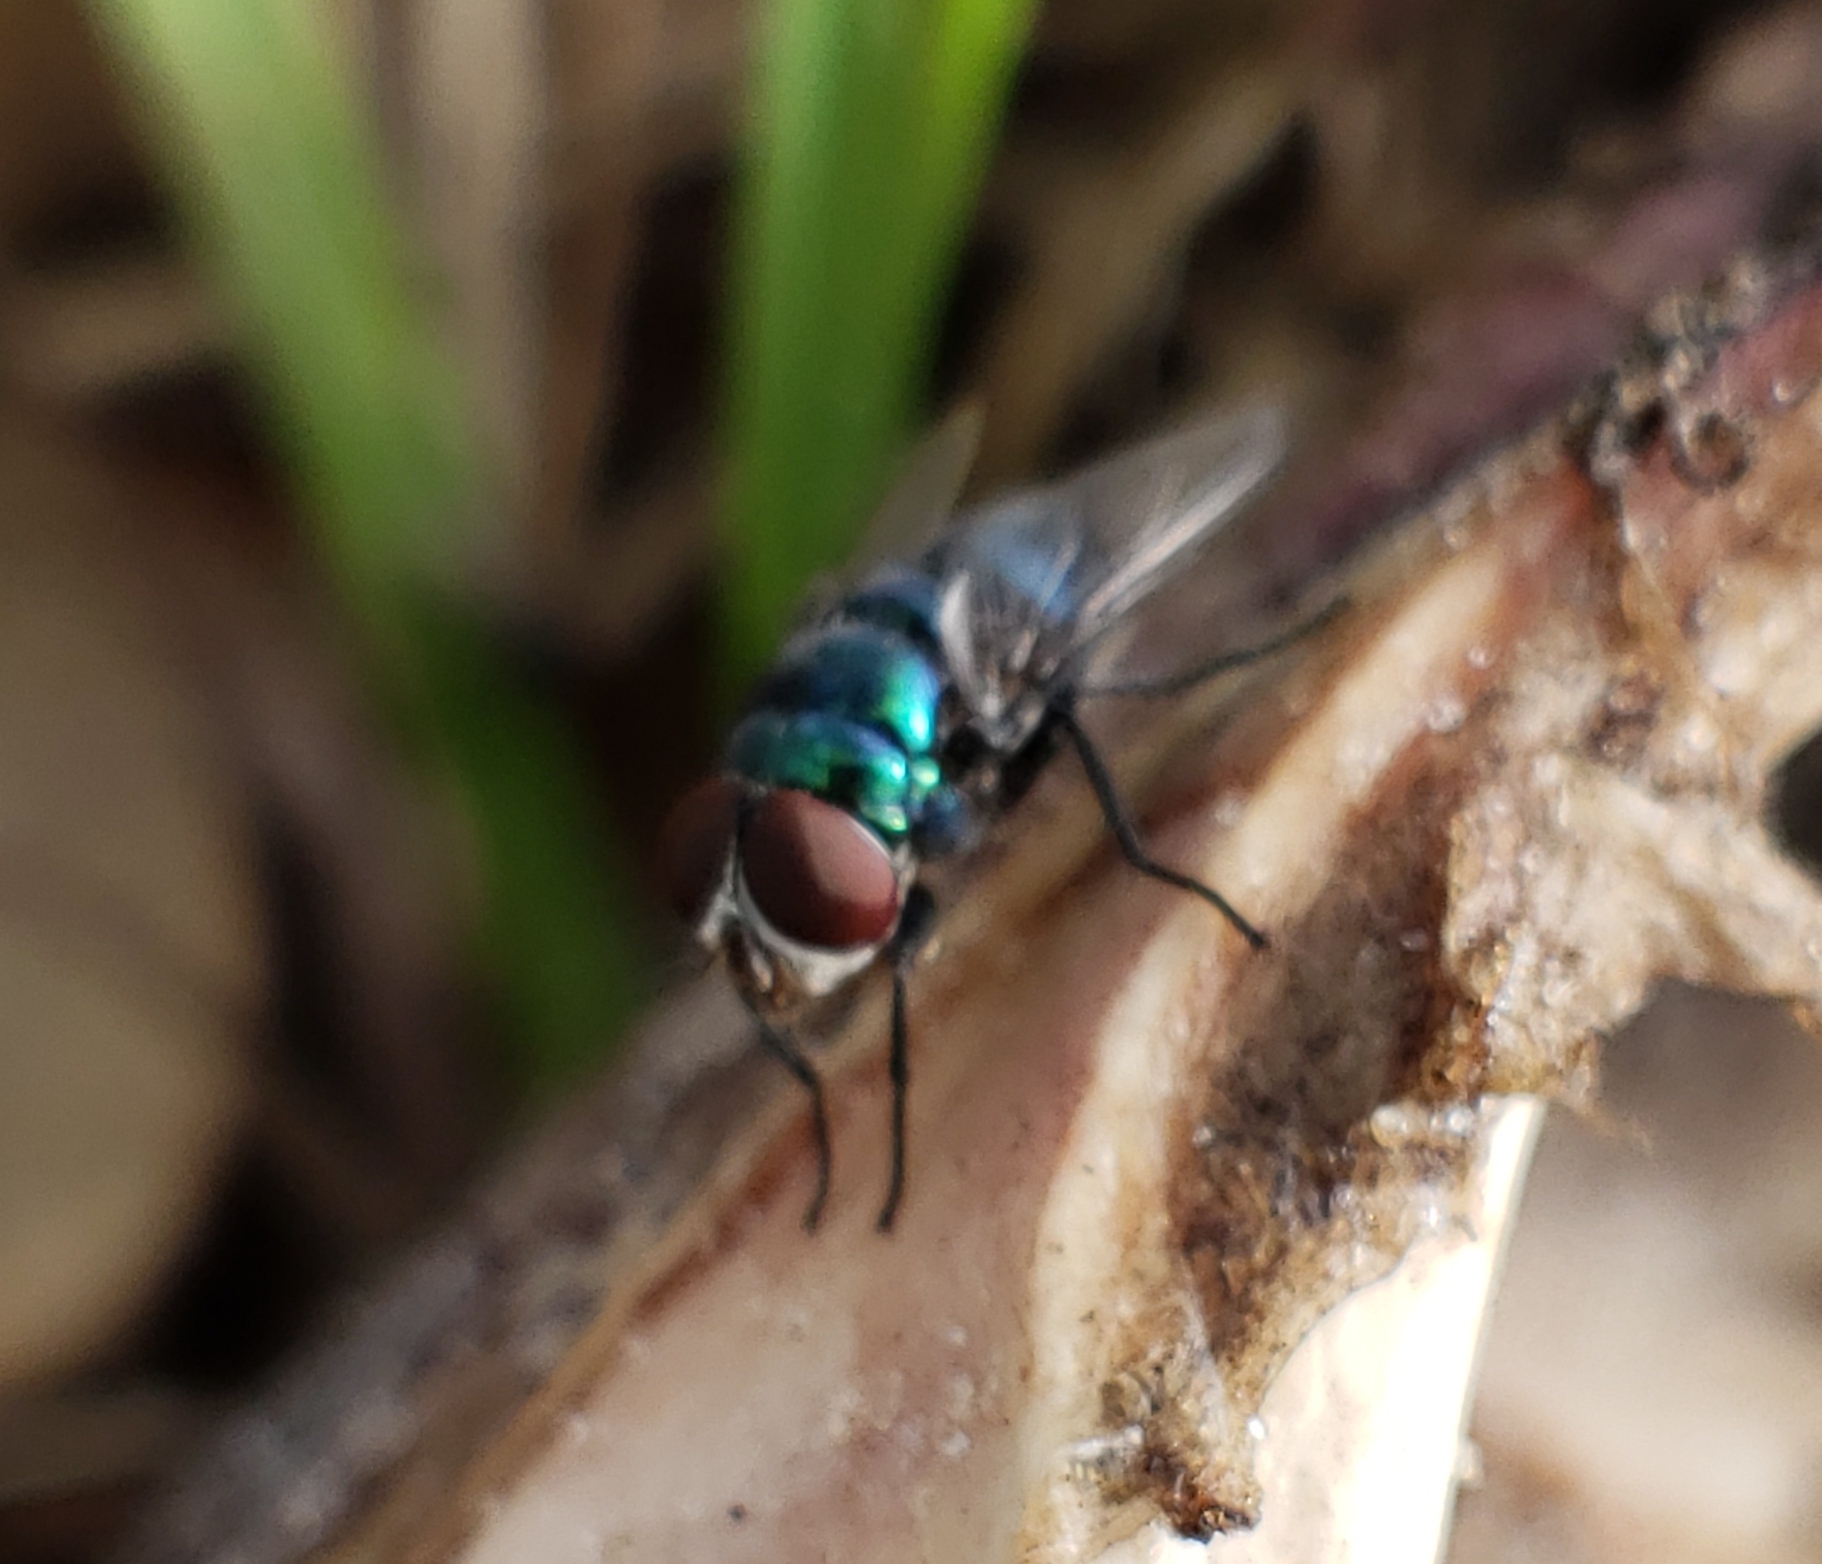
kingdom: Animalia
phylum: Arthropoda
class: Insecta
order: Diptera
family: Calliphoridae
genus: Chrysomya
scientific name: Chrysomya rufifacies
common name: Blow fly
